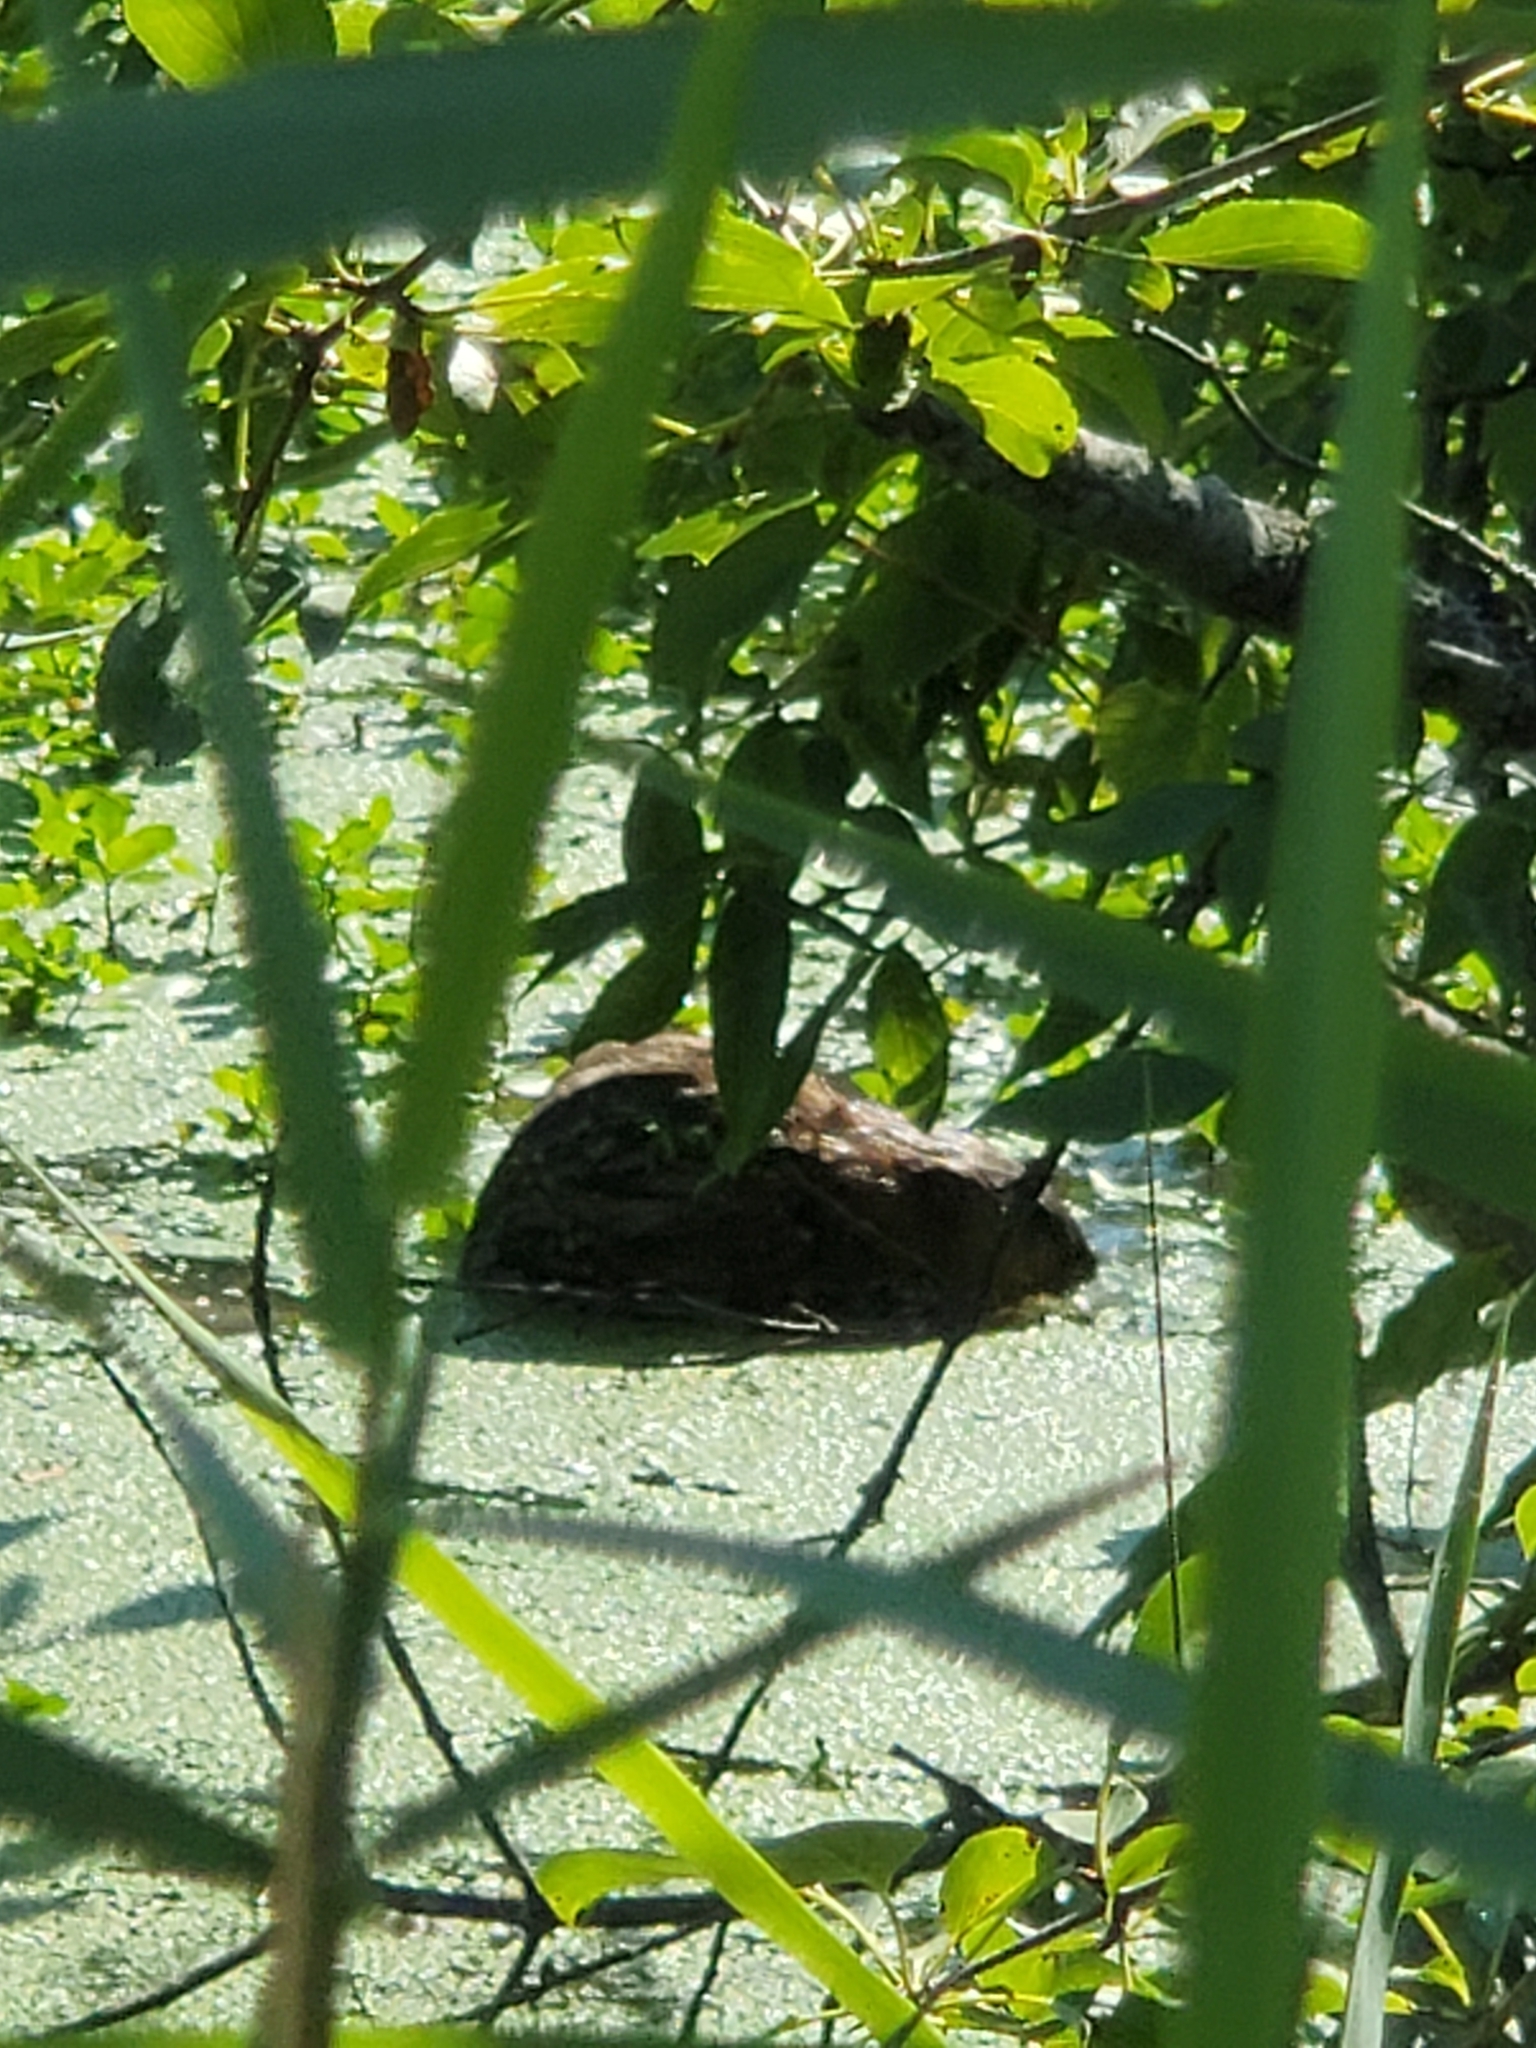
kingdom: Animalia
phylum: Chordata
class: Mammalia
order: Rodentia
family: Cricetidae
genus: Ondatra
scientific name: Ondatra zibethicus
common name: Muskrat
